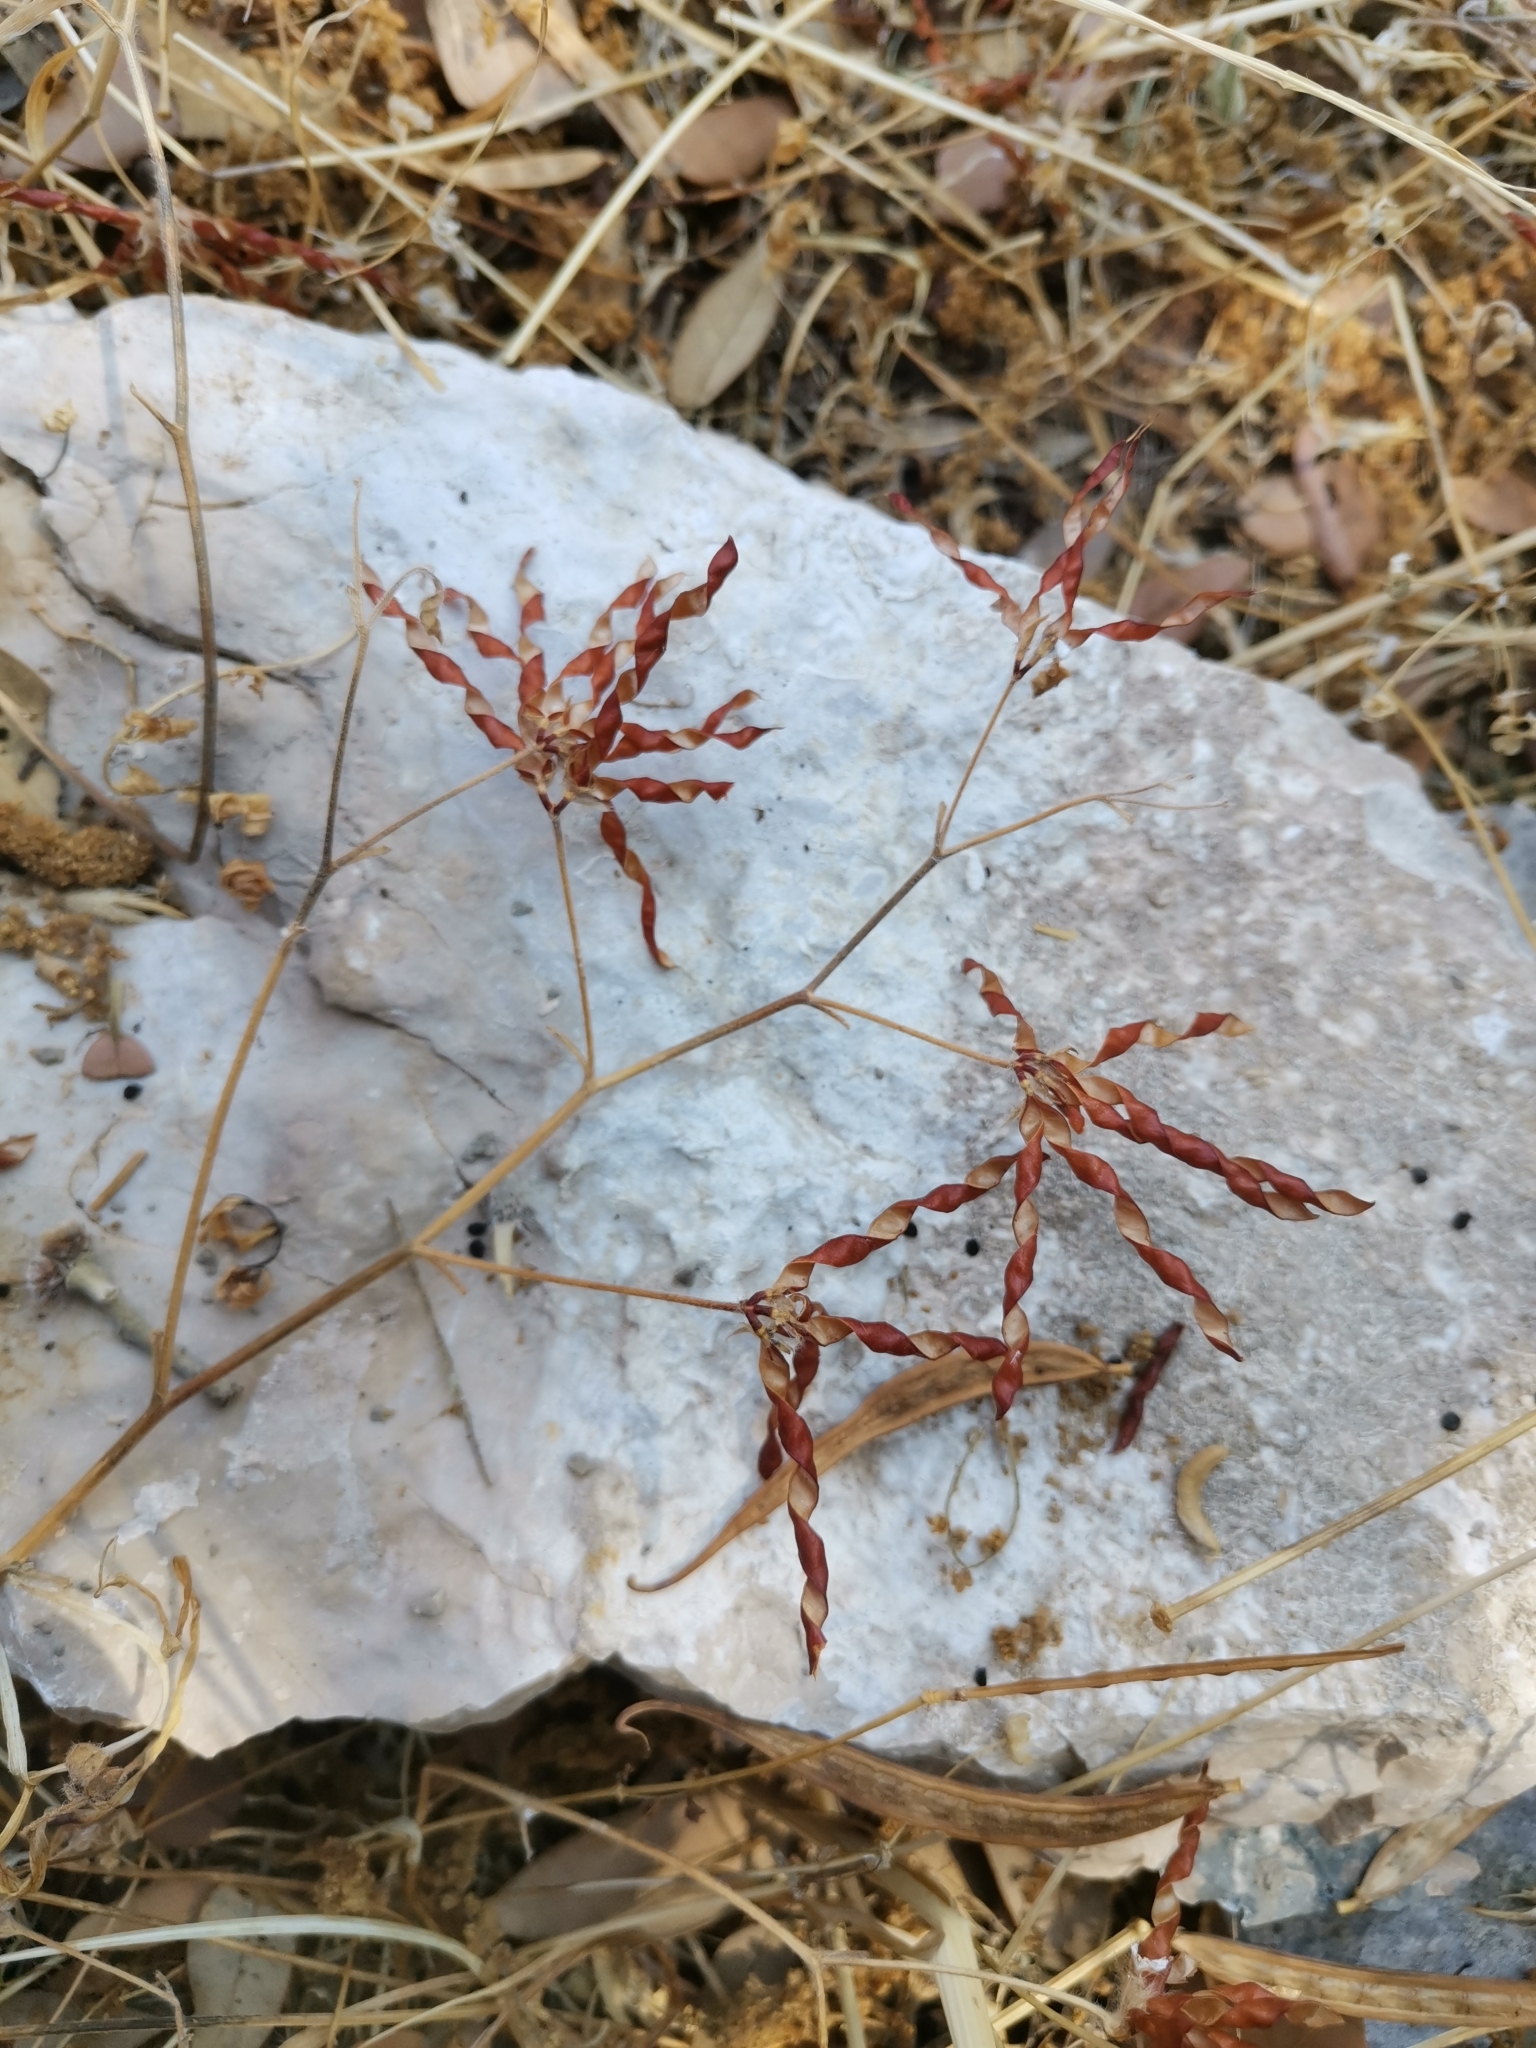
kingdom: Plantae
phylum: Tracheophyta
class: Magnoliopsida
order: Fabales
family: Fabaceae
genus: Lotus
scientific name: Lotus ornithopodioides
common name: Southern bird's-foot trefoil
